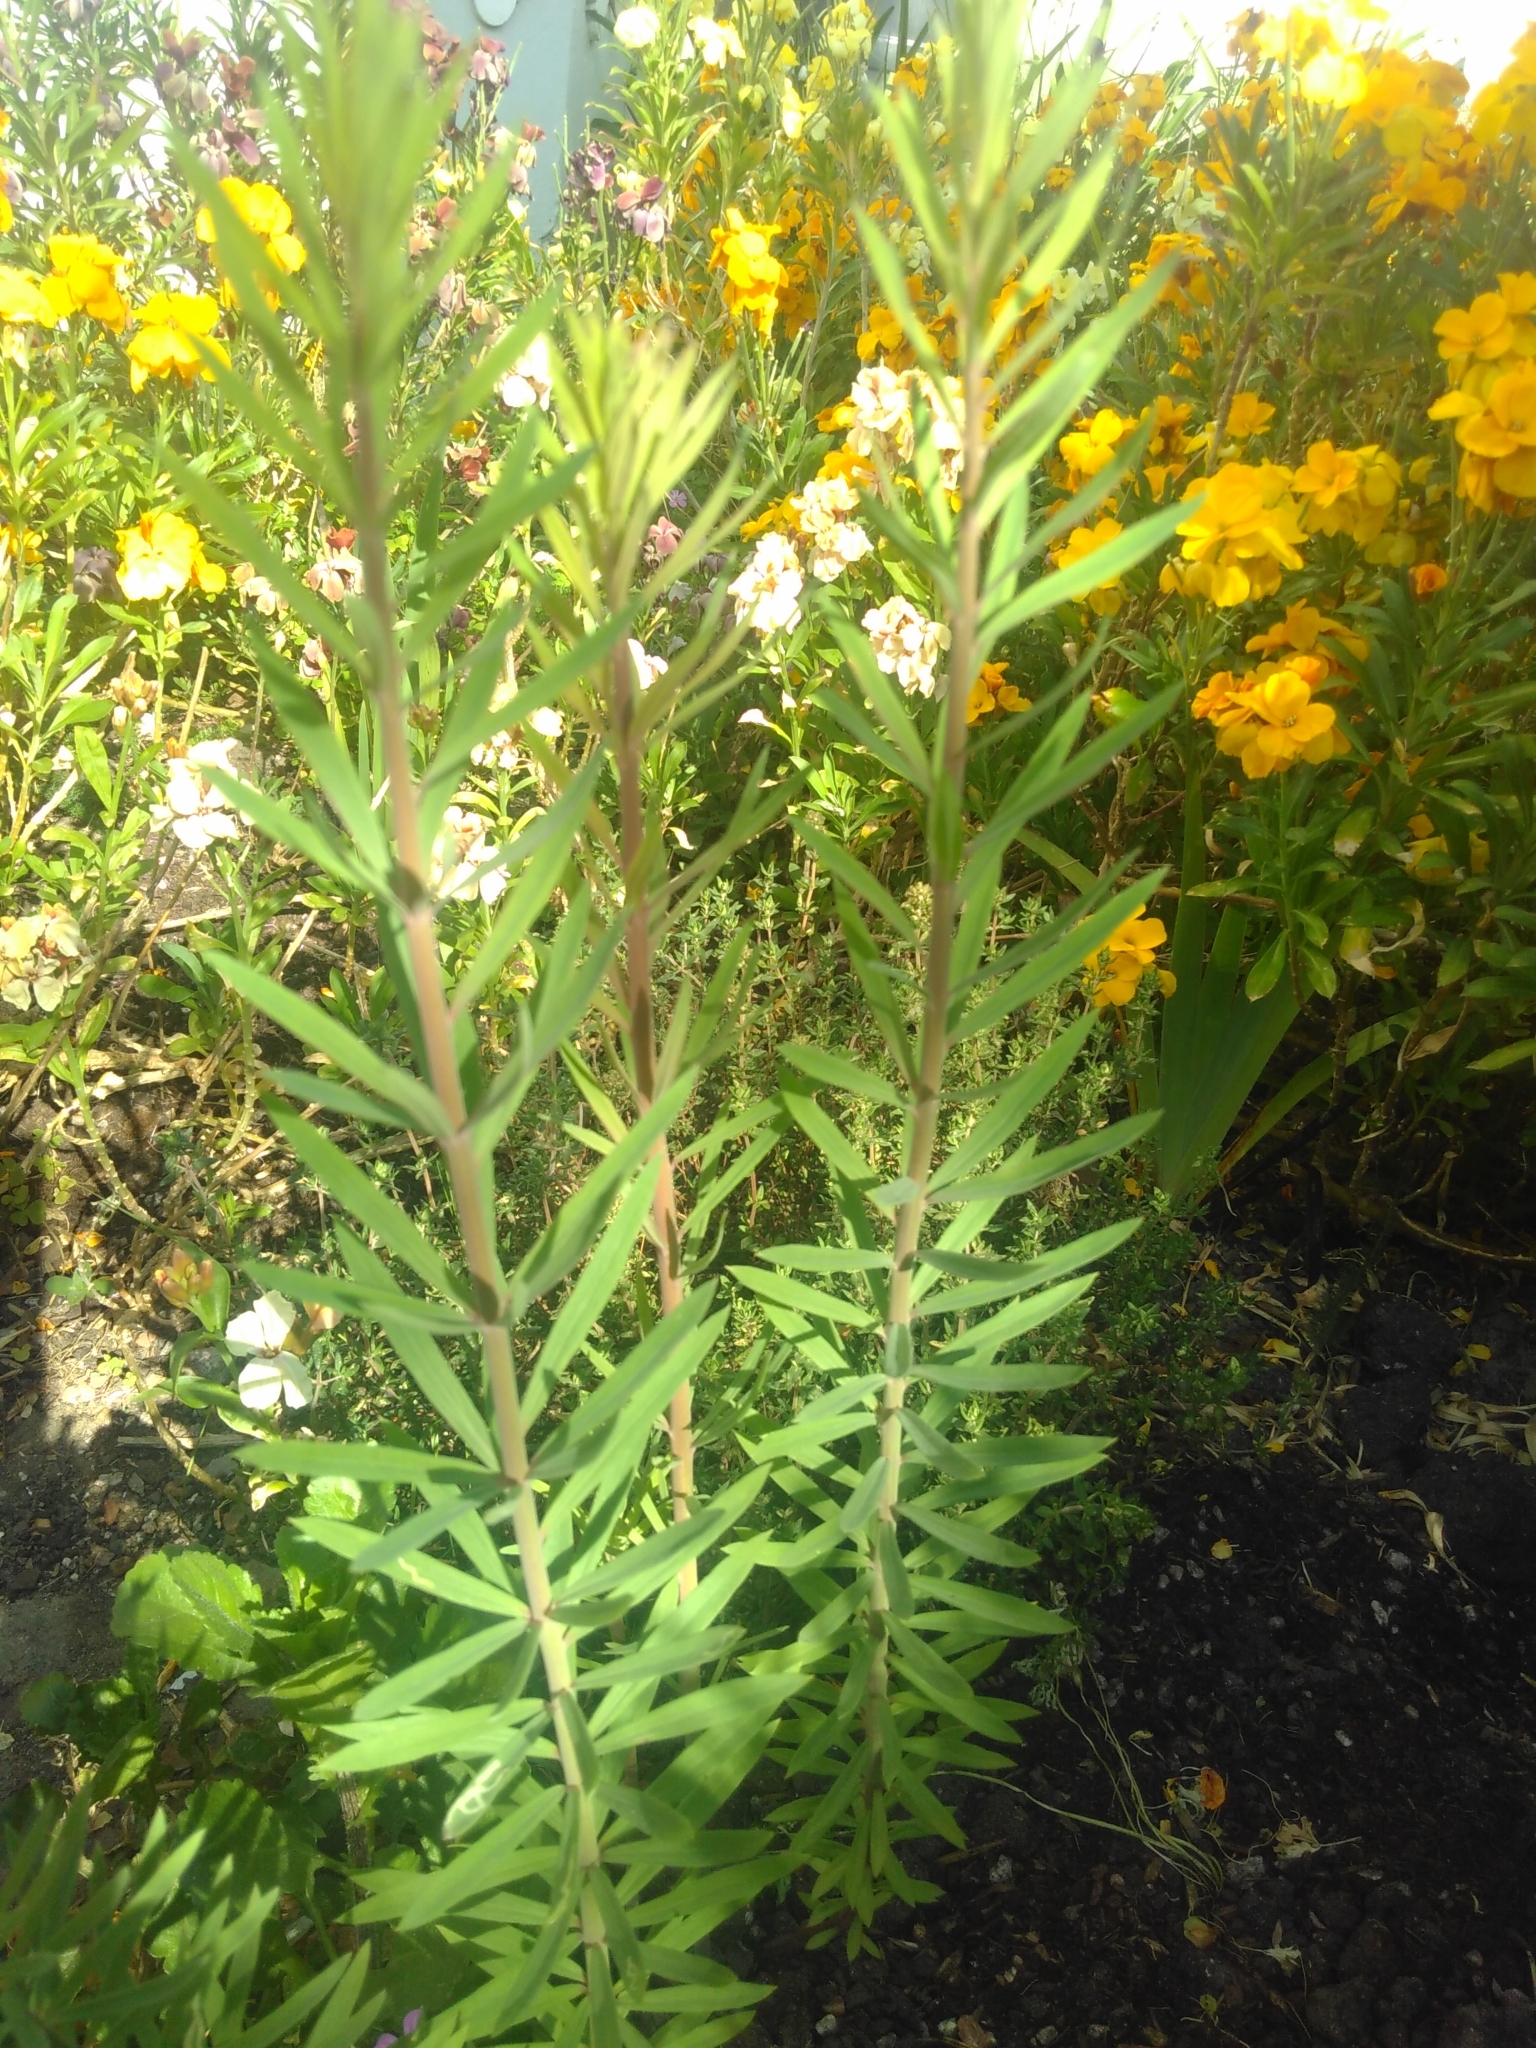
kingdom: Plantae
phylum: Tracheophyta
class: Magnoliopsida
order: Lamiales
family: Plantaginaceae
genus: Linaria
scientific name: Linaria purpurea
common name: Purple toadflax
